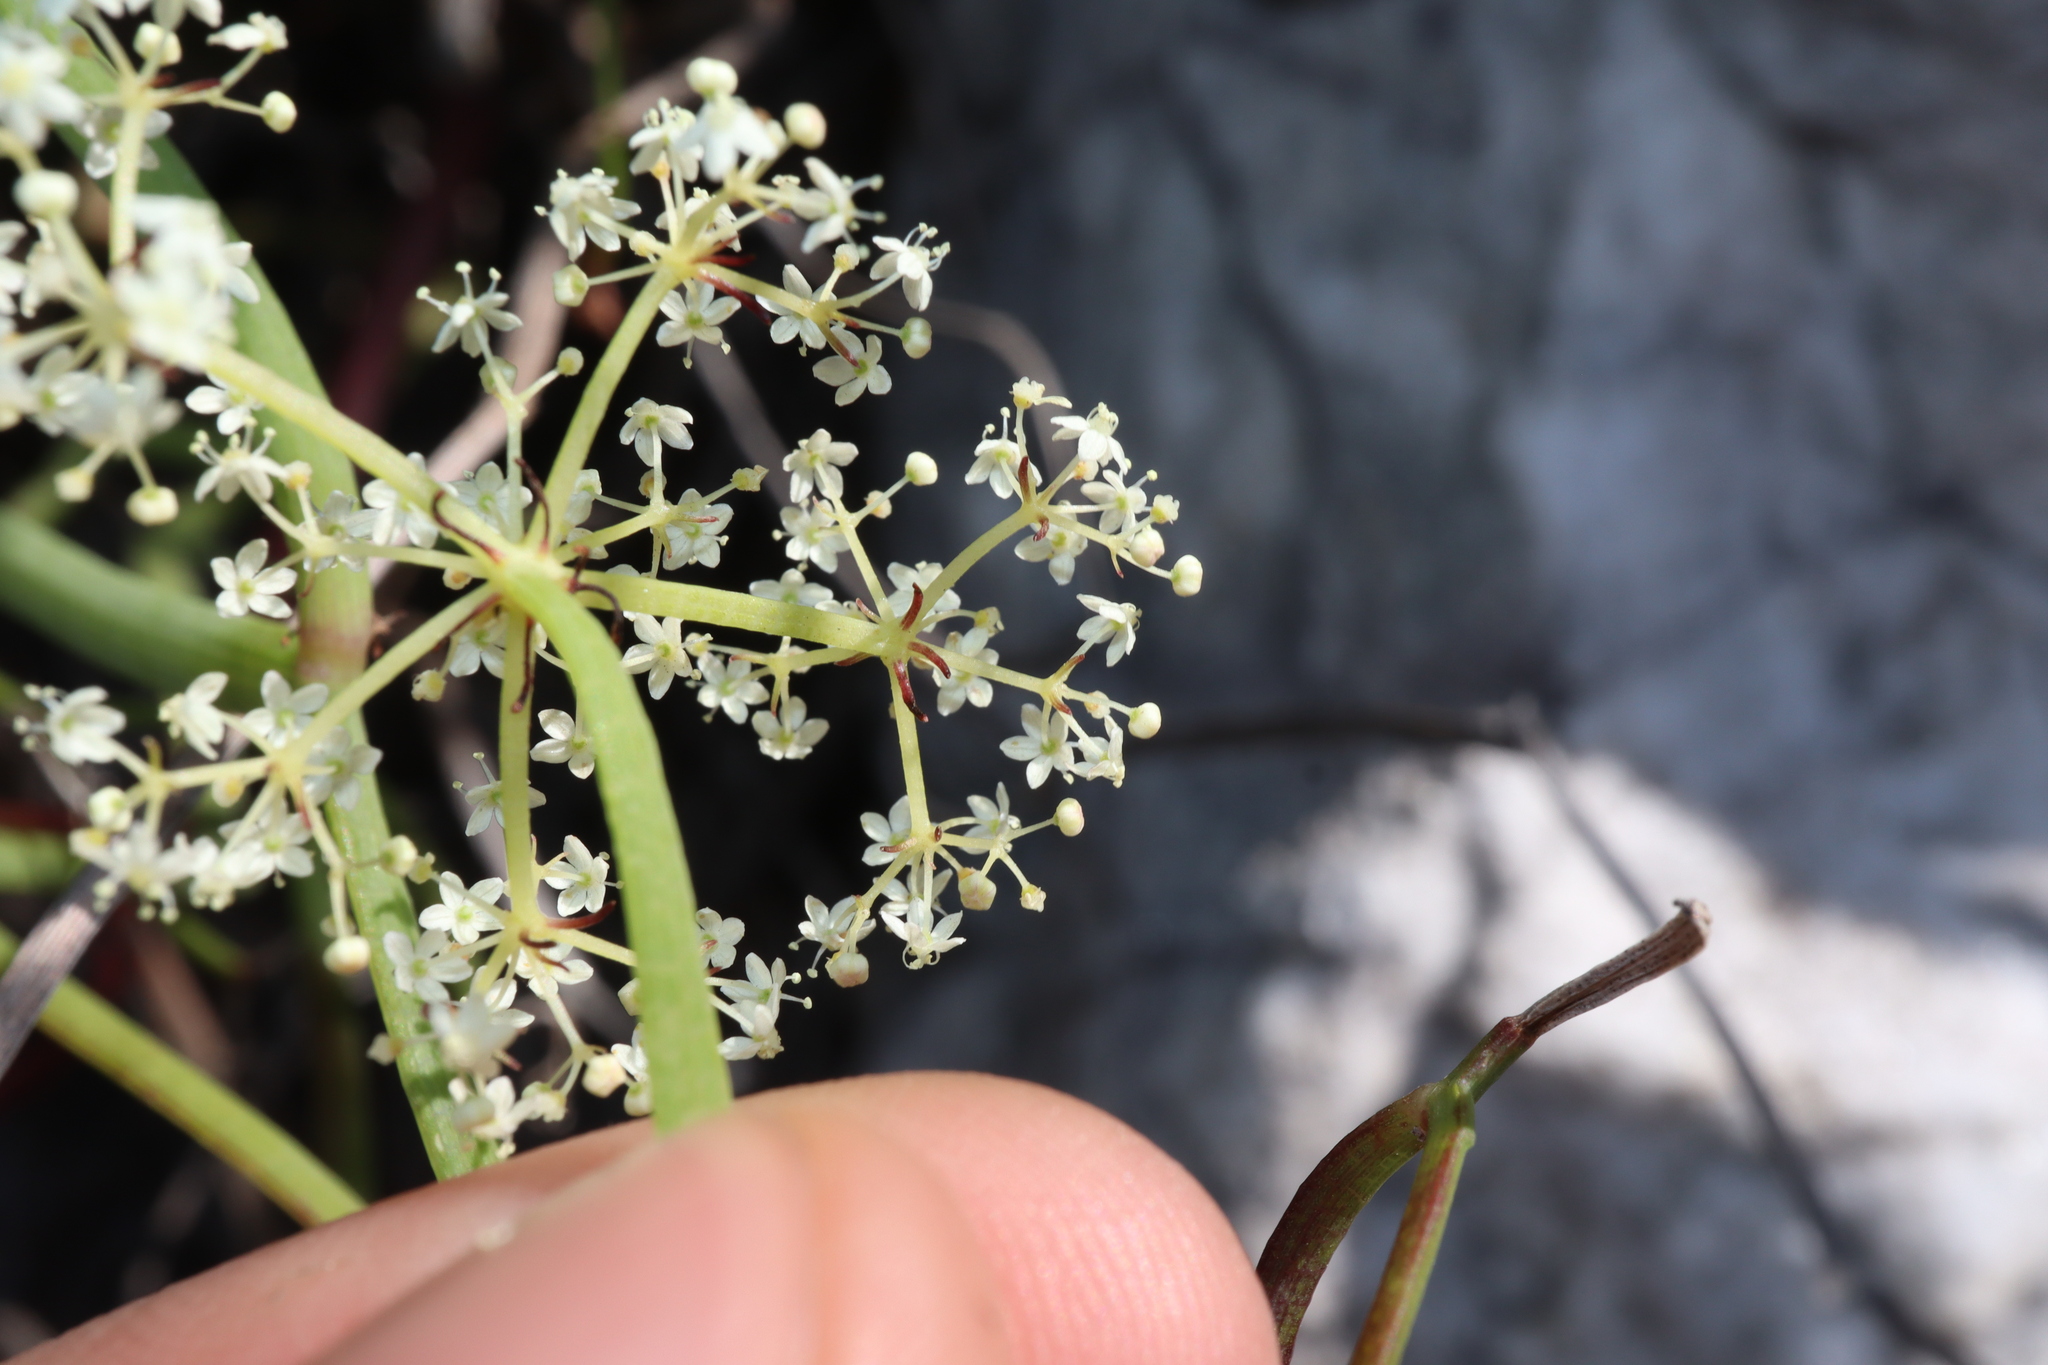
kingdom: Plantae
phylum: Tracheophyta
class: Magnoliopsida
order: Apiales
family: Apiaceae
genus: Platysace
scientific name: Platysace compressa
